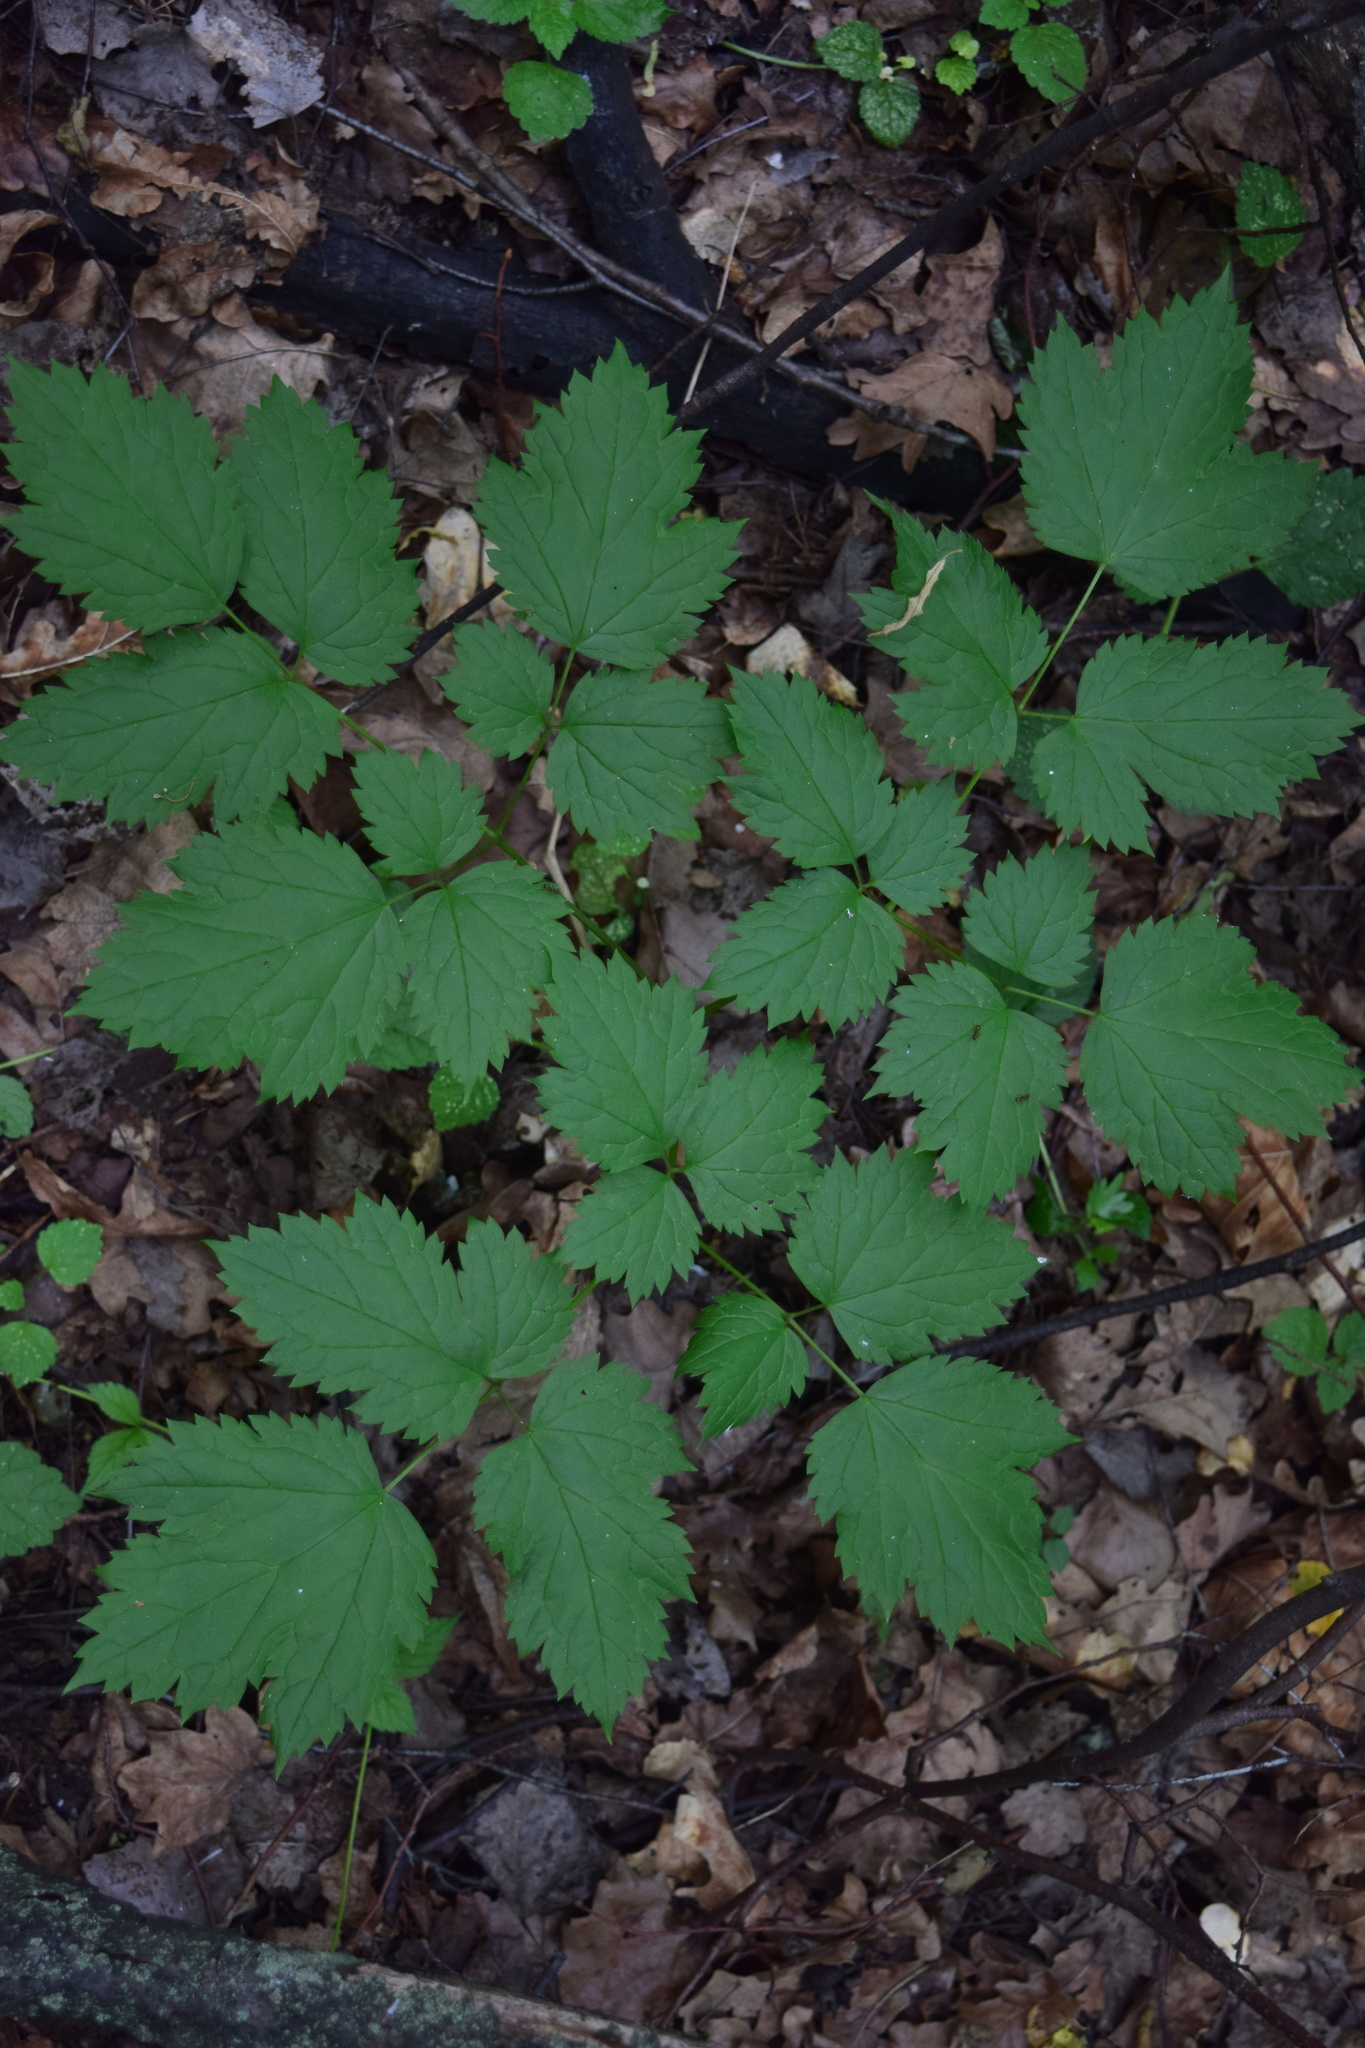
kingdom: Plantae
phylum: Tracheophyta
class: Magnoliopsida
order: Ranunculales
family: Ranunculaceae
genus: Actaea
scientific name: Actaea spicata
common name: Baneberry
